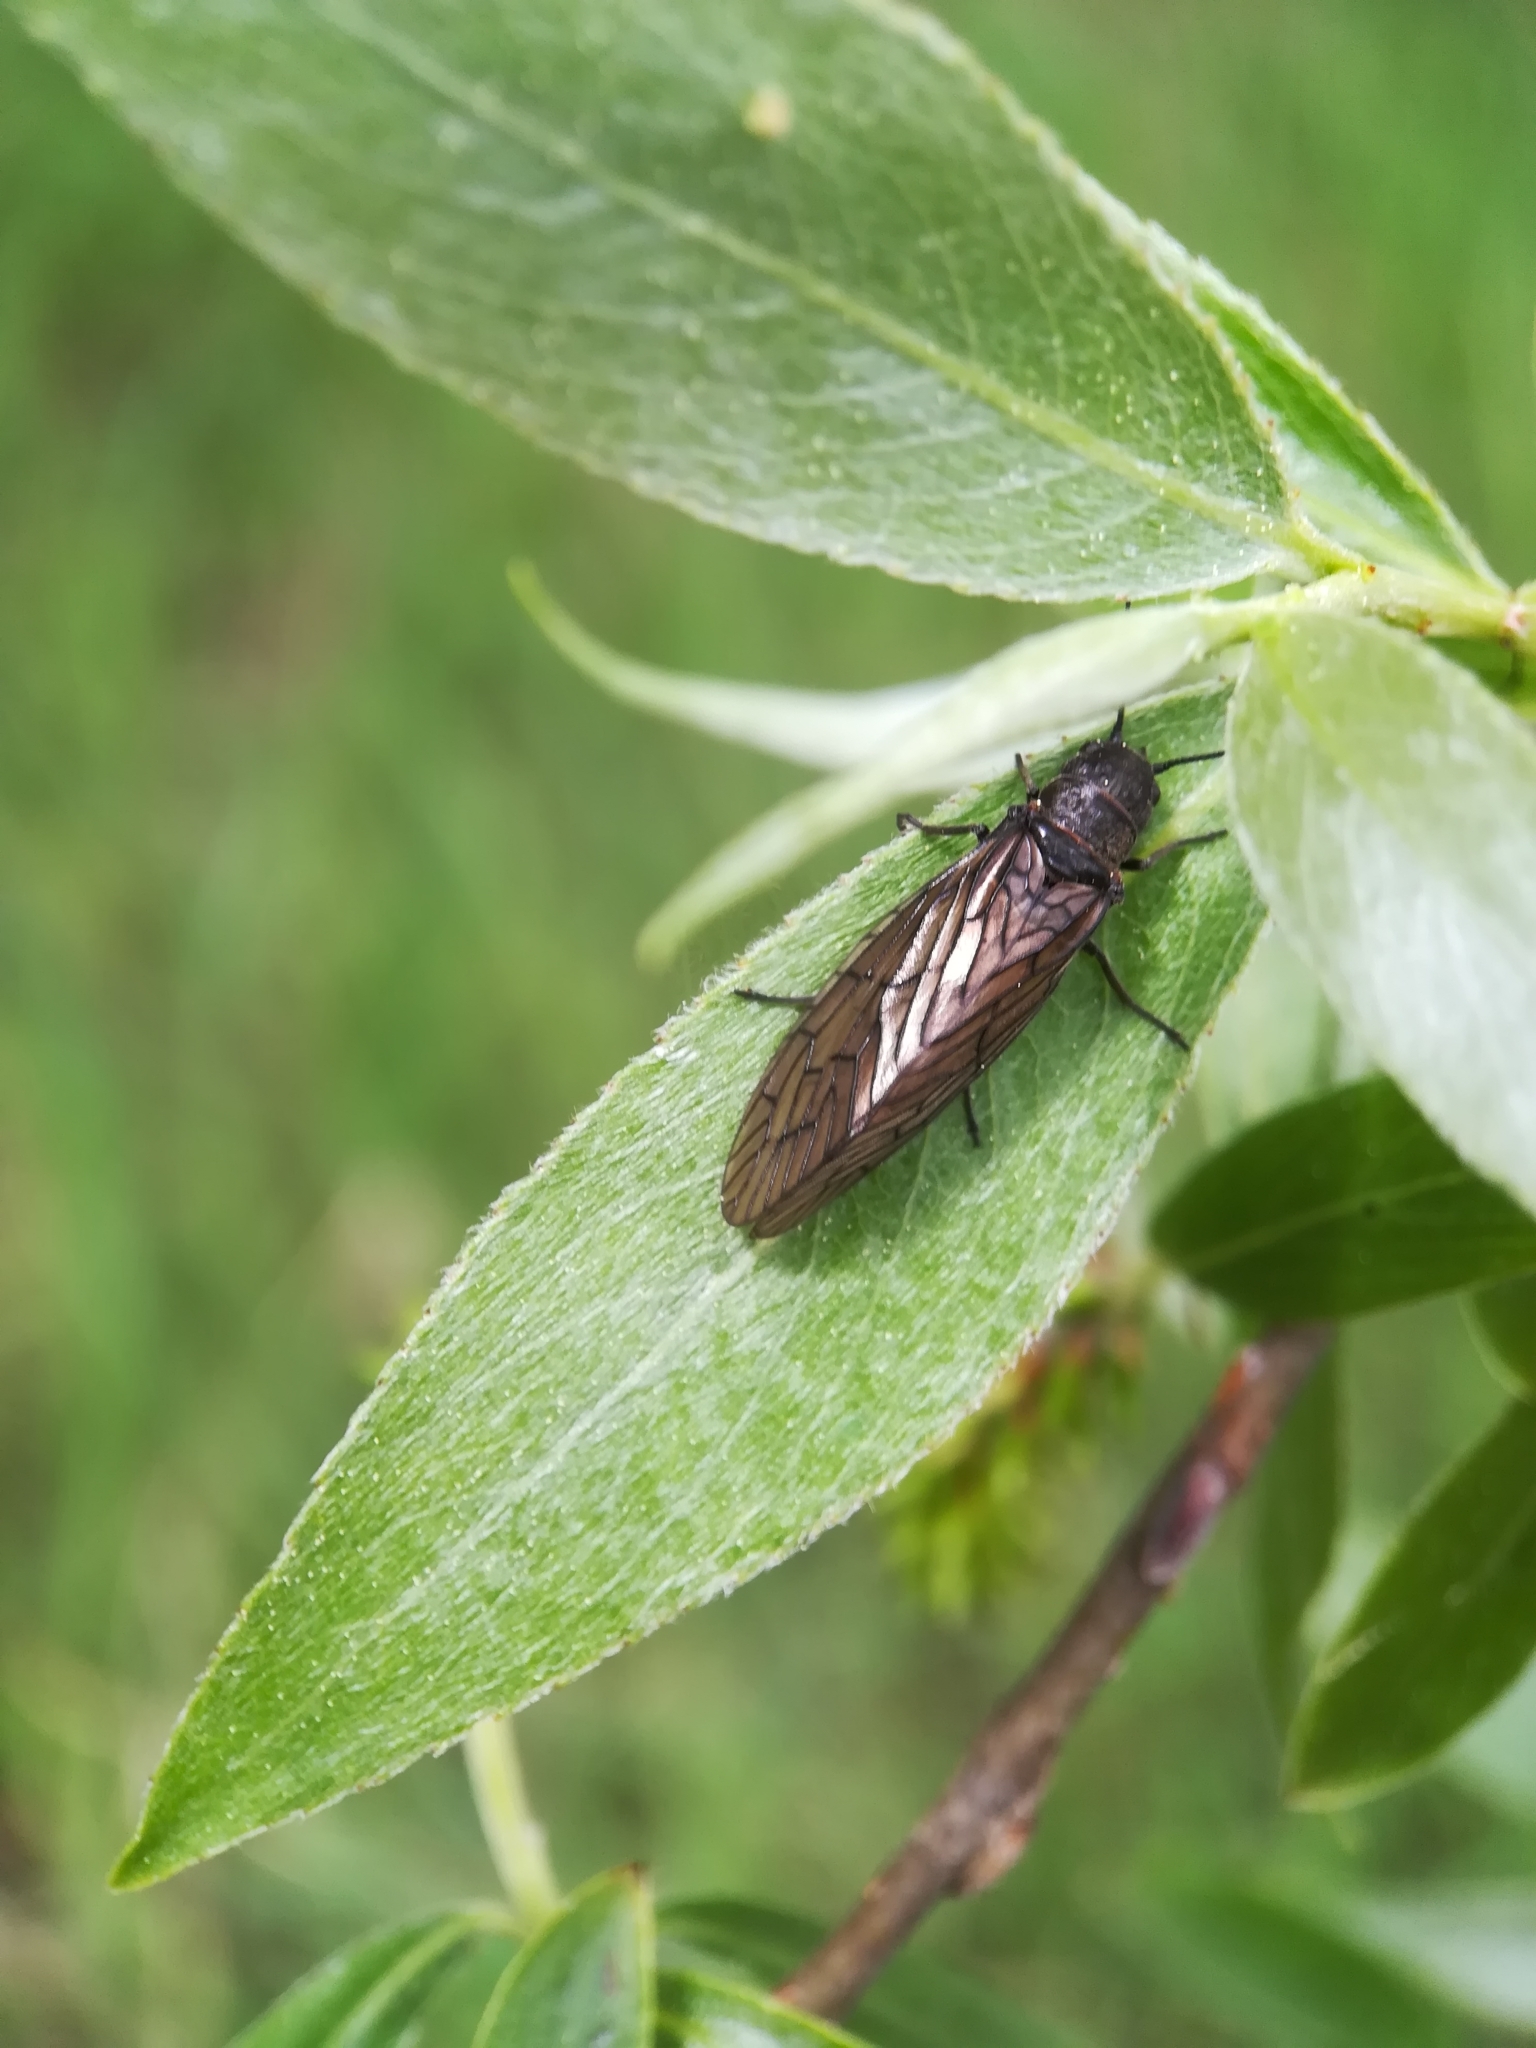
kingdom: Animalia
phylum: Arthropoda
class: Insecta
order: Megaloptera
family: Sialidae
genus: Sialis
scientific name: Sialis
